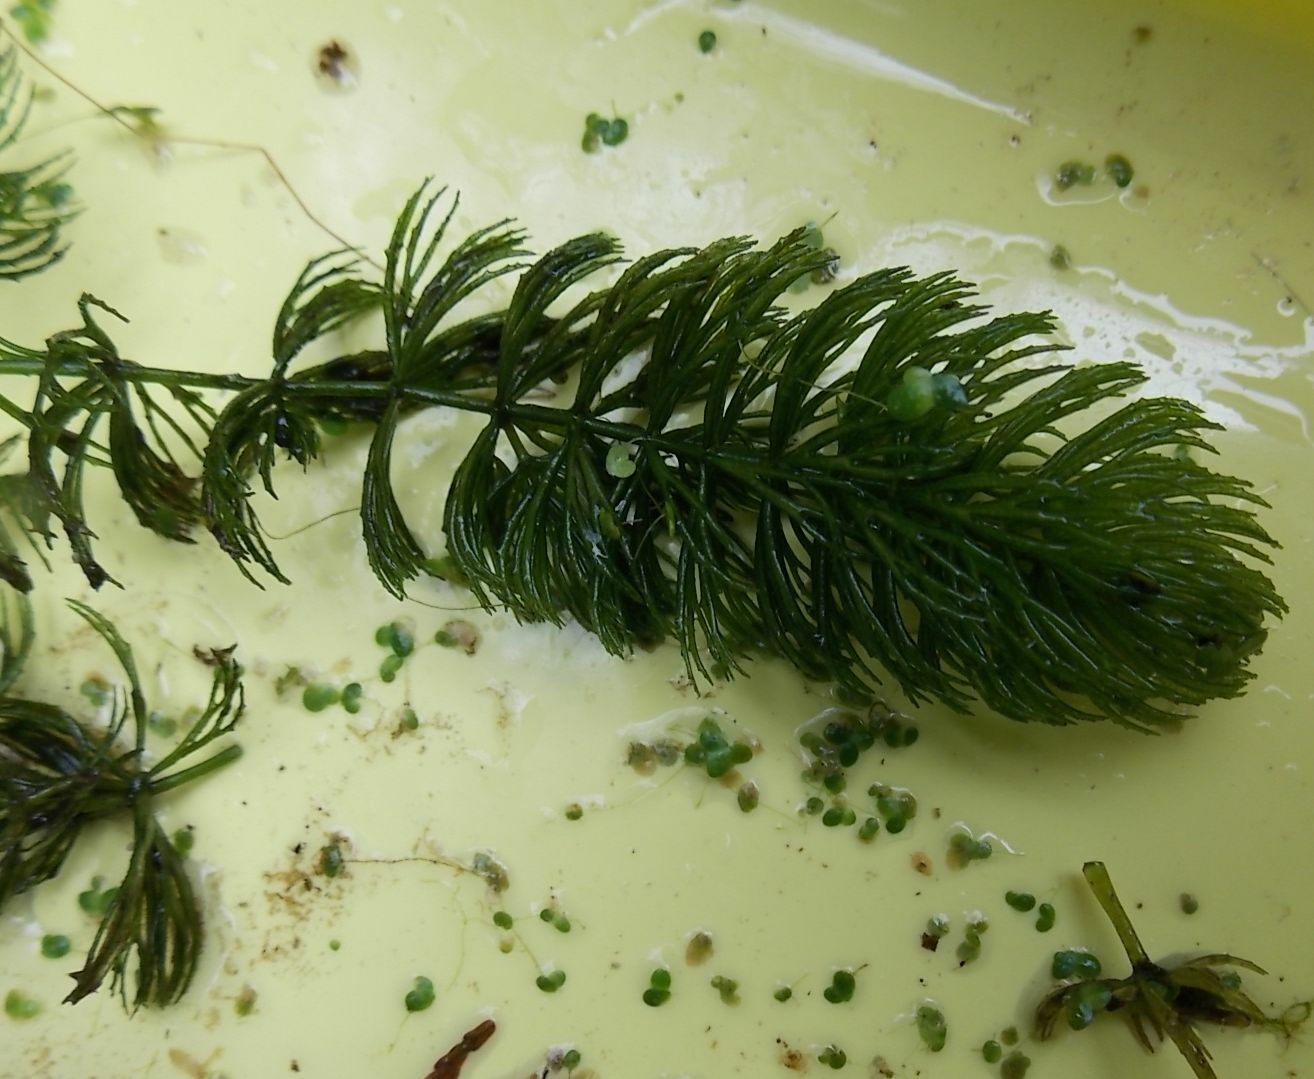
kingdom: Plantae
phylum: Tracheophyta
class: Magnoliopsida
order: Ceratophyllales
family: Ceratophyllaceae
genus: Ceratophyllum
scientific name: Ceratophyllum demersum
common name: Rigid hornwort
